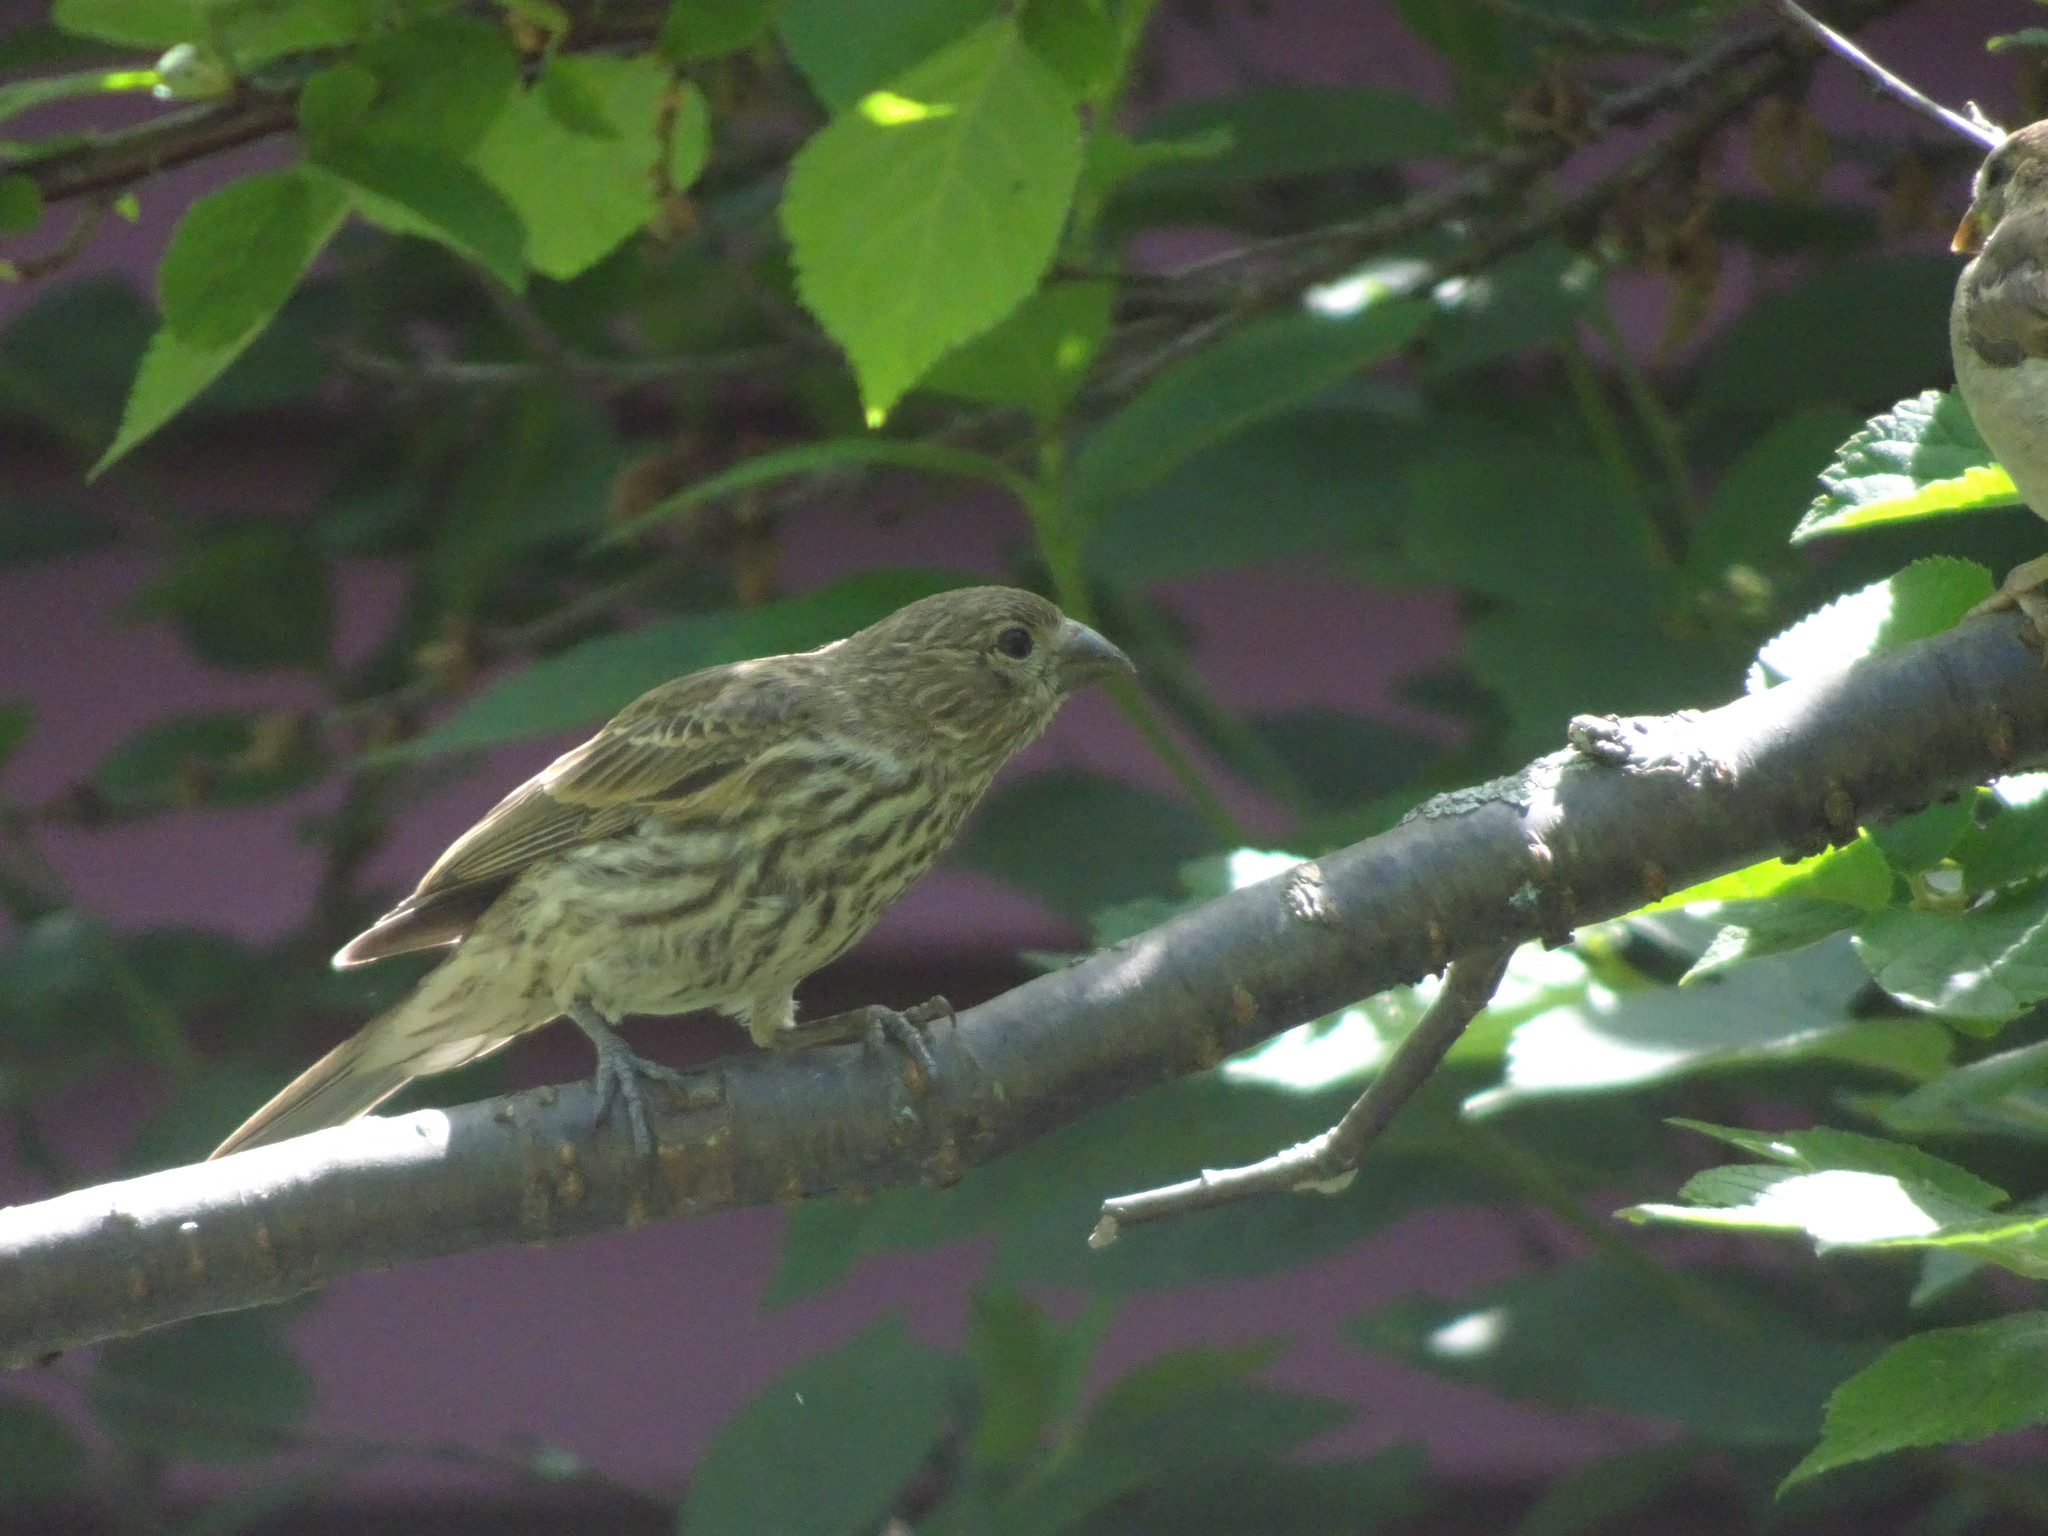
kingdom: Animalia
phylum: Chordata
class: Aves
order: Passeriformes
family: Fringillidae
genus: Haemorhous
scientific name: Haemorhous mexicanus
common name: House finch
